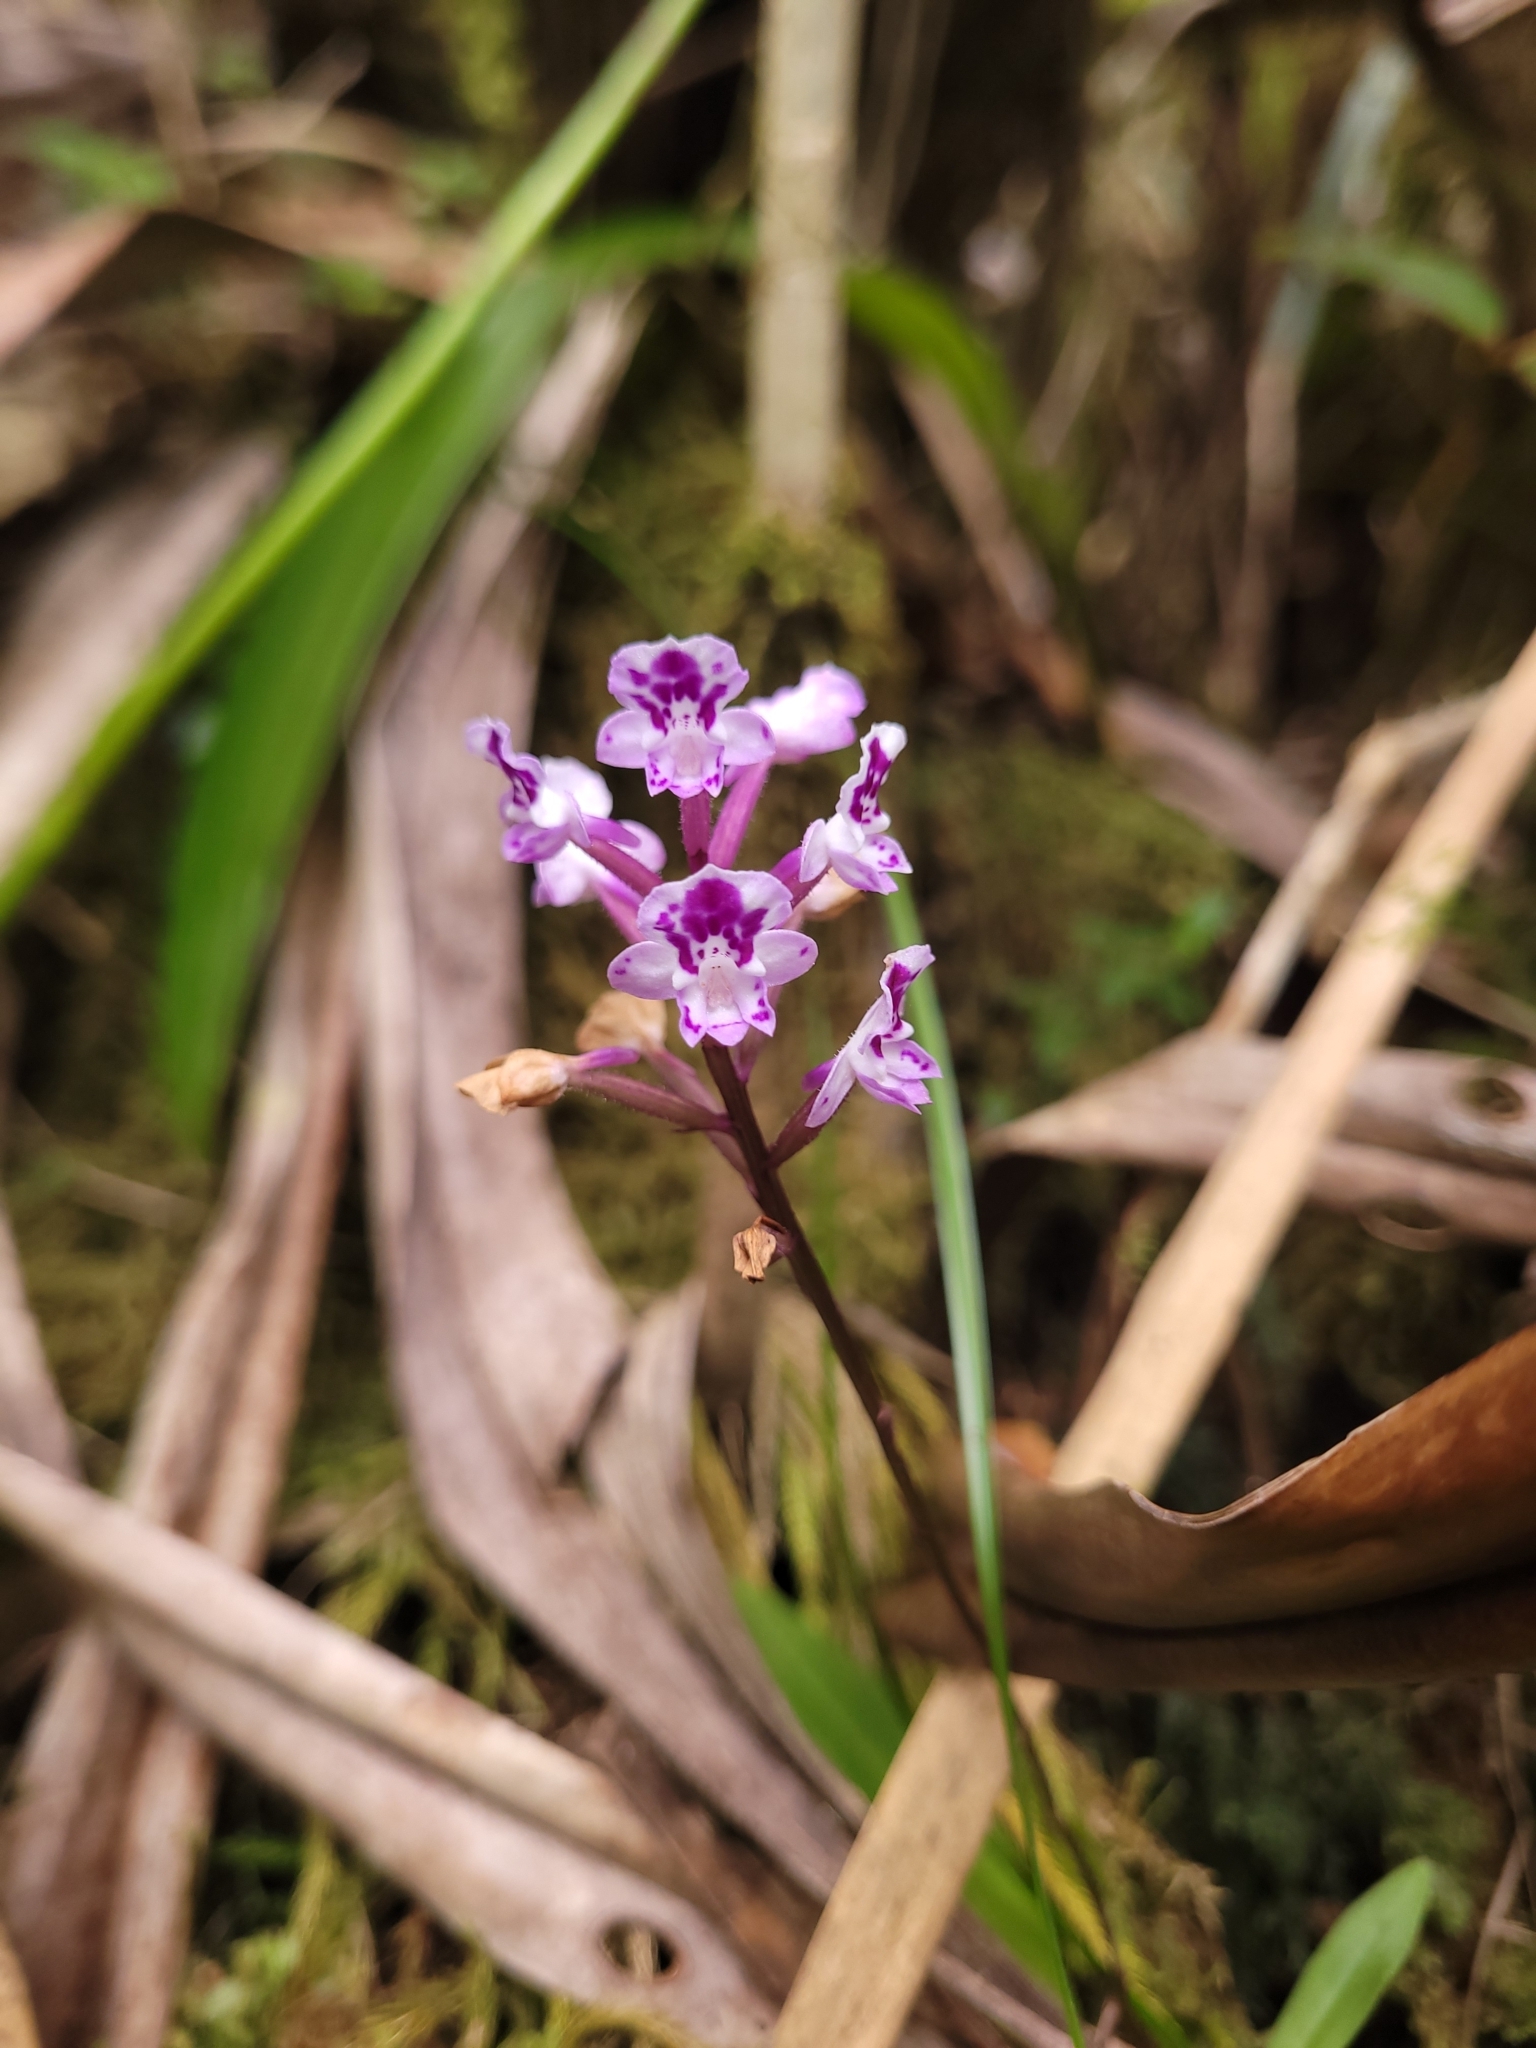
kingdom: Plantae
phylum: Tracheophyta
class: Liliopsida
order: Asparagales
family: Orchidaceae
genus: Cynorkis
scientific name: Cynorkis squamosa
